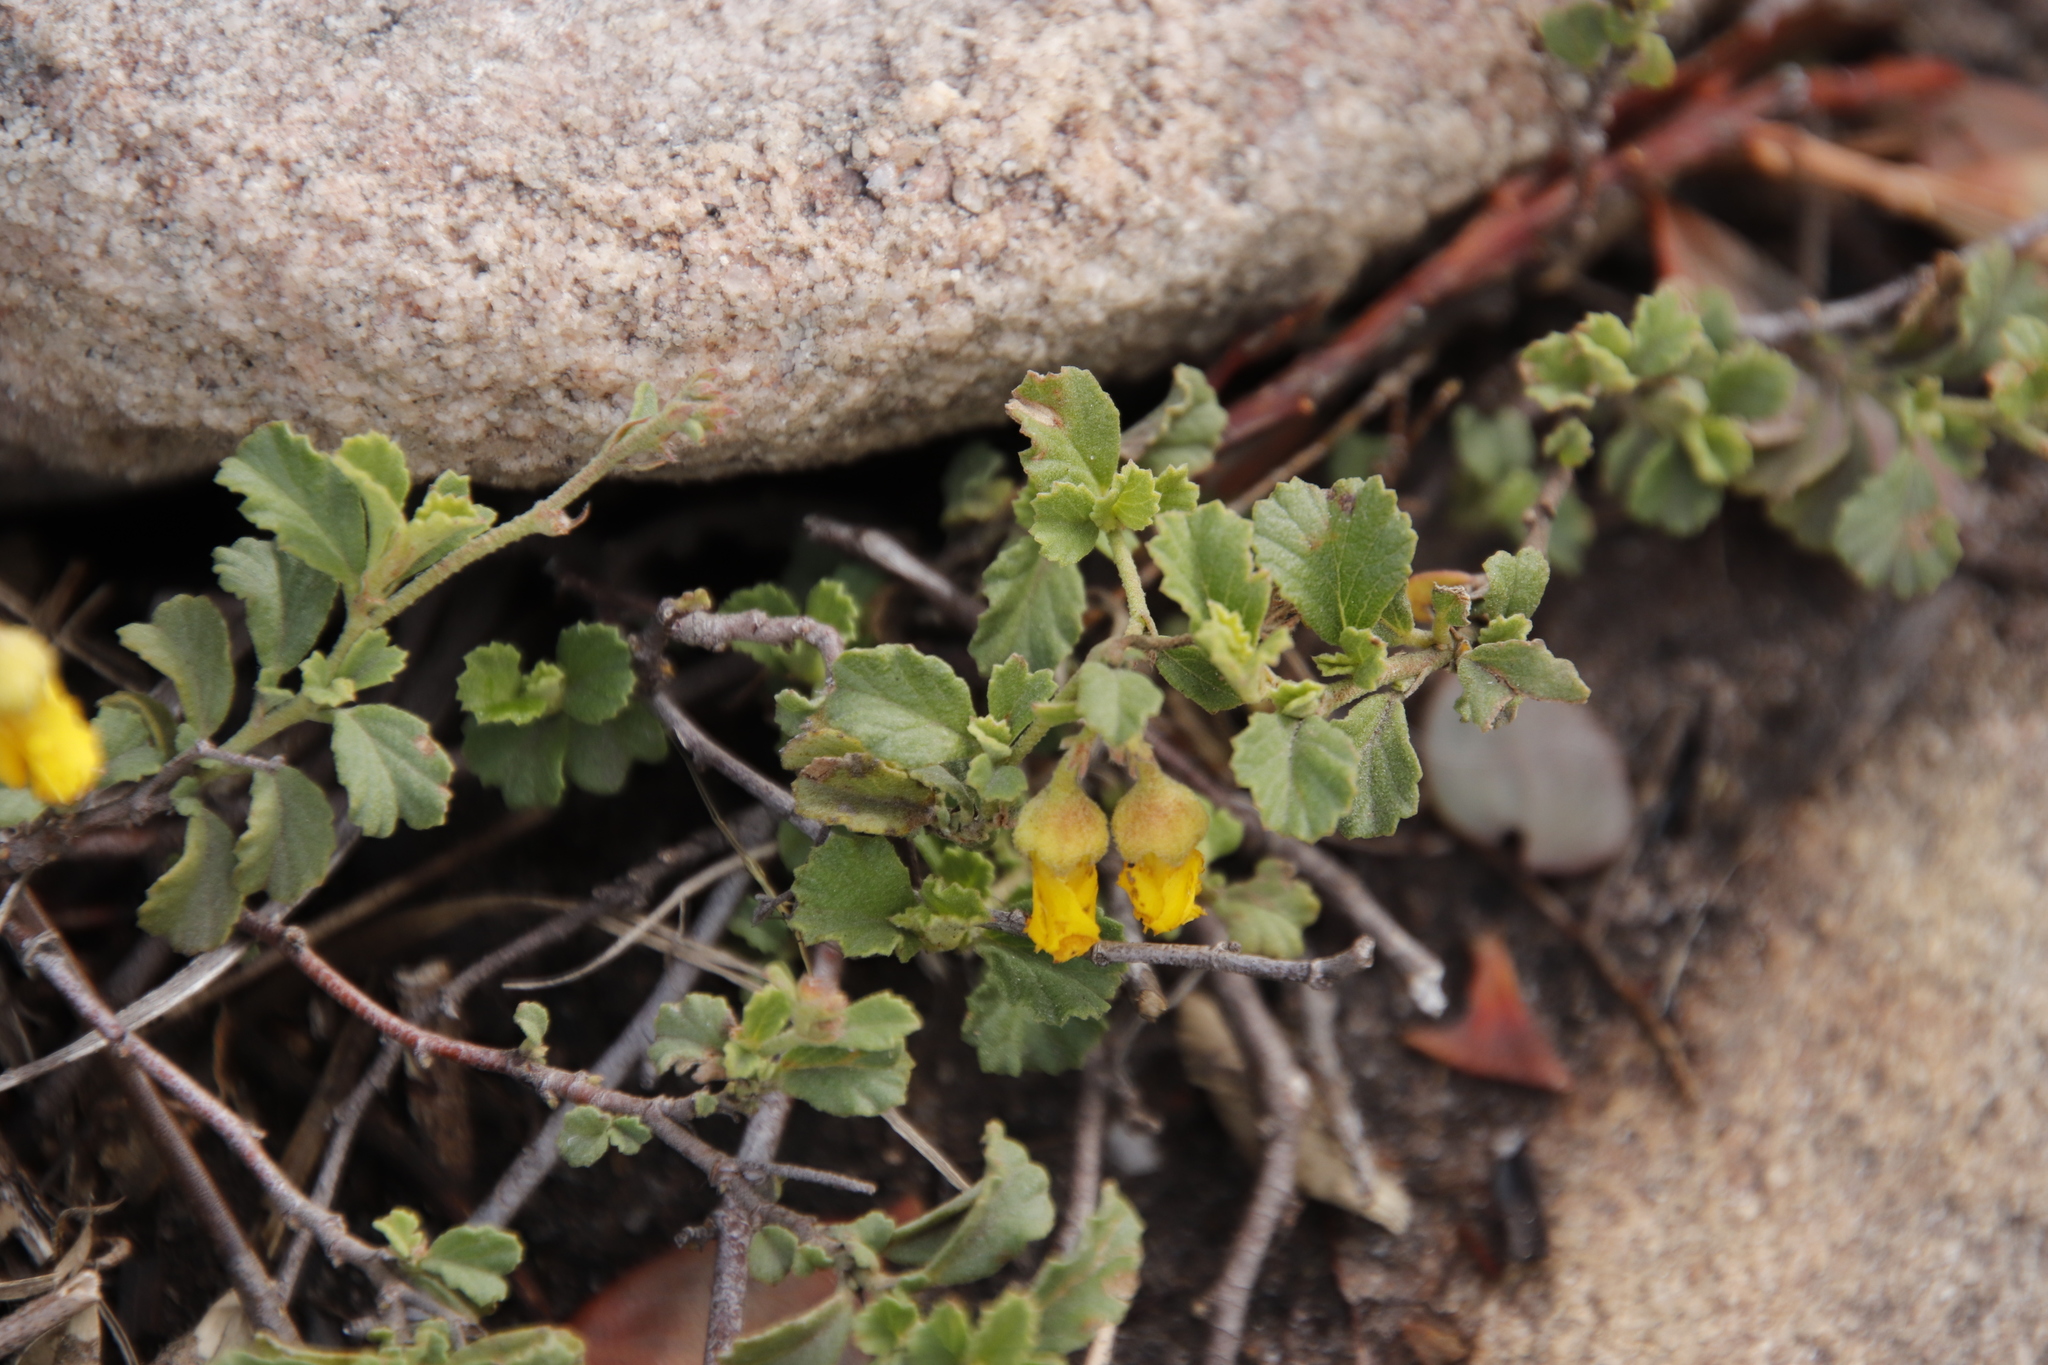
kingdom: Plantae
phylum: Tracheophyta
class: Magnoliopsida
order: Malvales
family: Malvaceae
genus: Hermannia
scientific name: Hermannia multiflora
